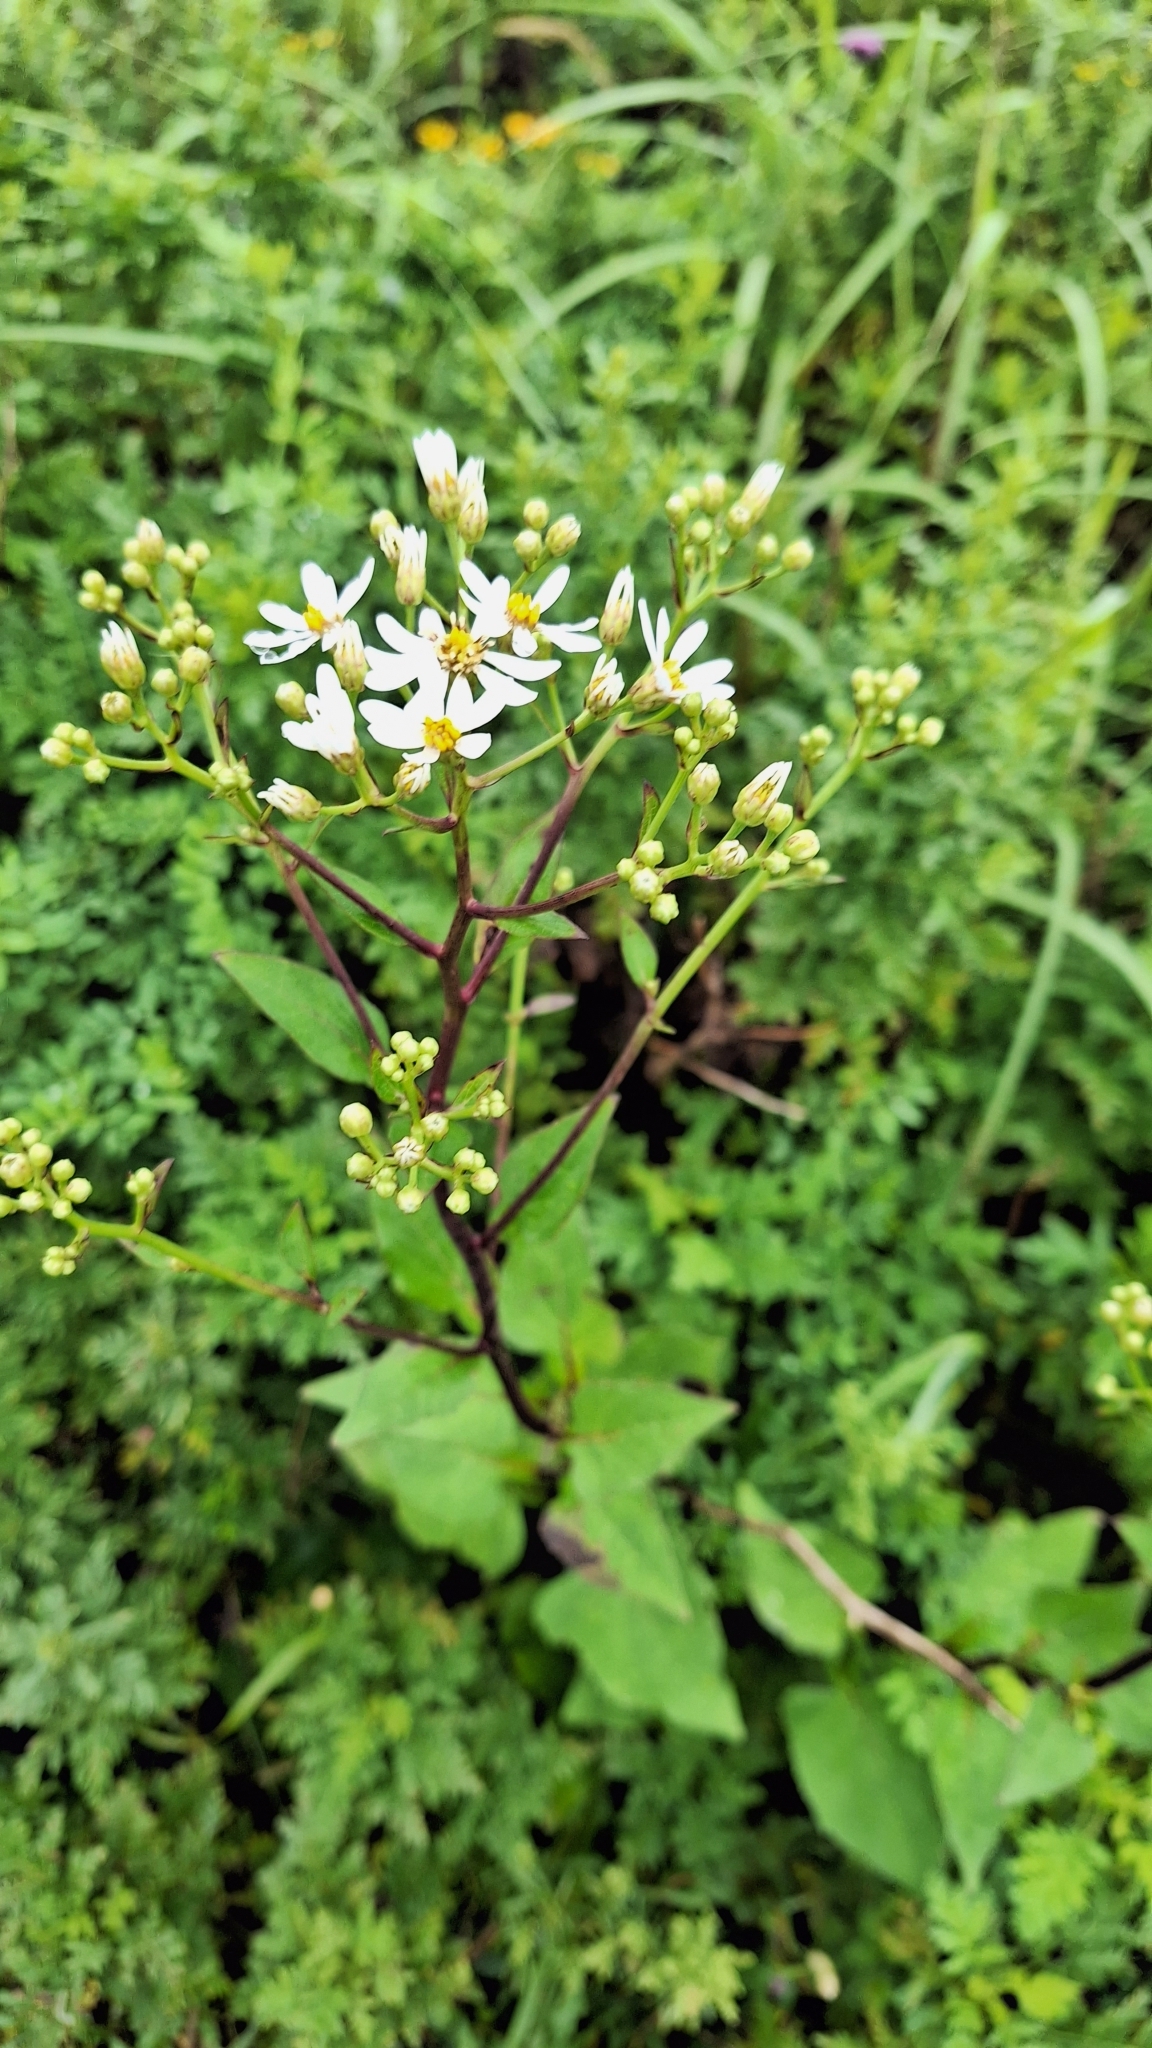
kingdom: Plantae
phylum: Tracheophyta
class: Magnoliopsida
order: Asterales
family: Asteraceae
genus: Aster
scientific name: Aster scaber
